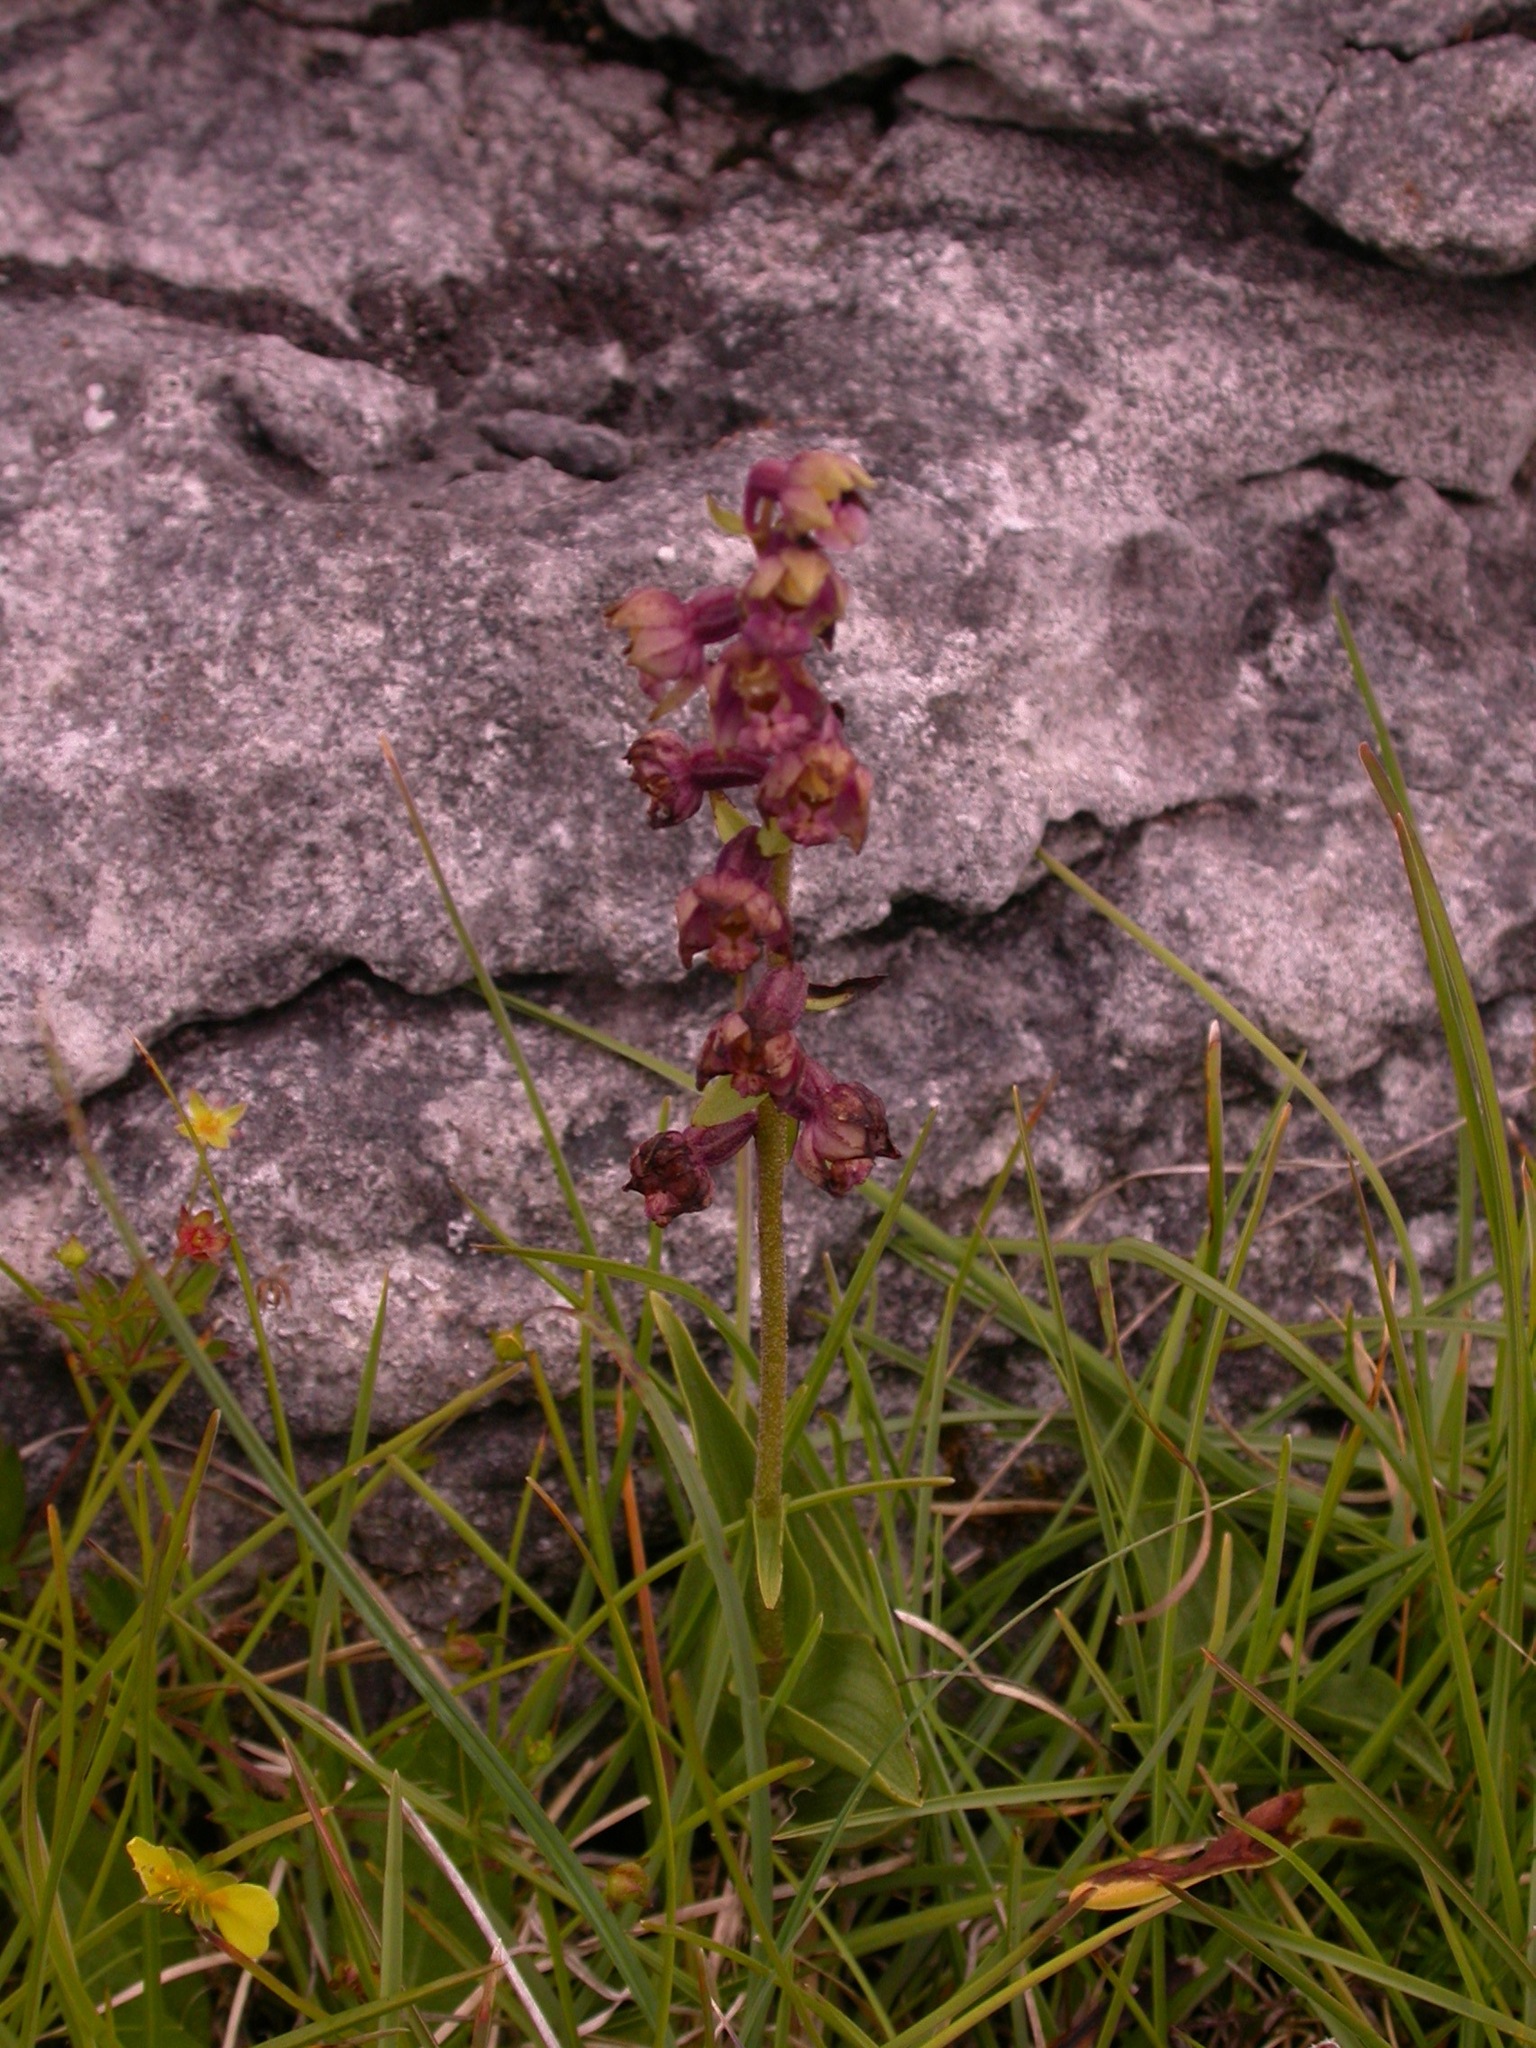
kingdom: Plantae
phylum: Tracheophyta
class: Liliopsida
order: Asparagales
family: Orchidaceae
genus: Epipactis
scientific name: Epipactis atrorubens
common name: Dark-red helleborine
